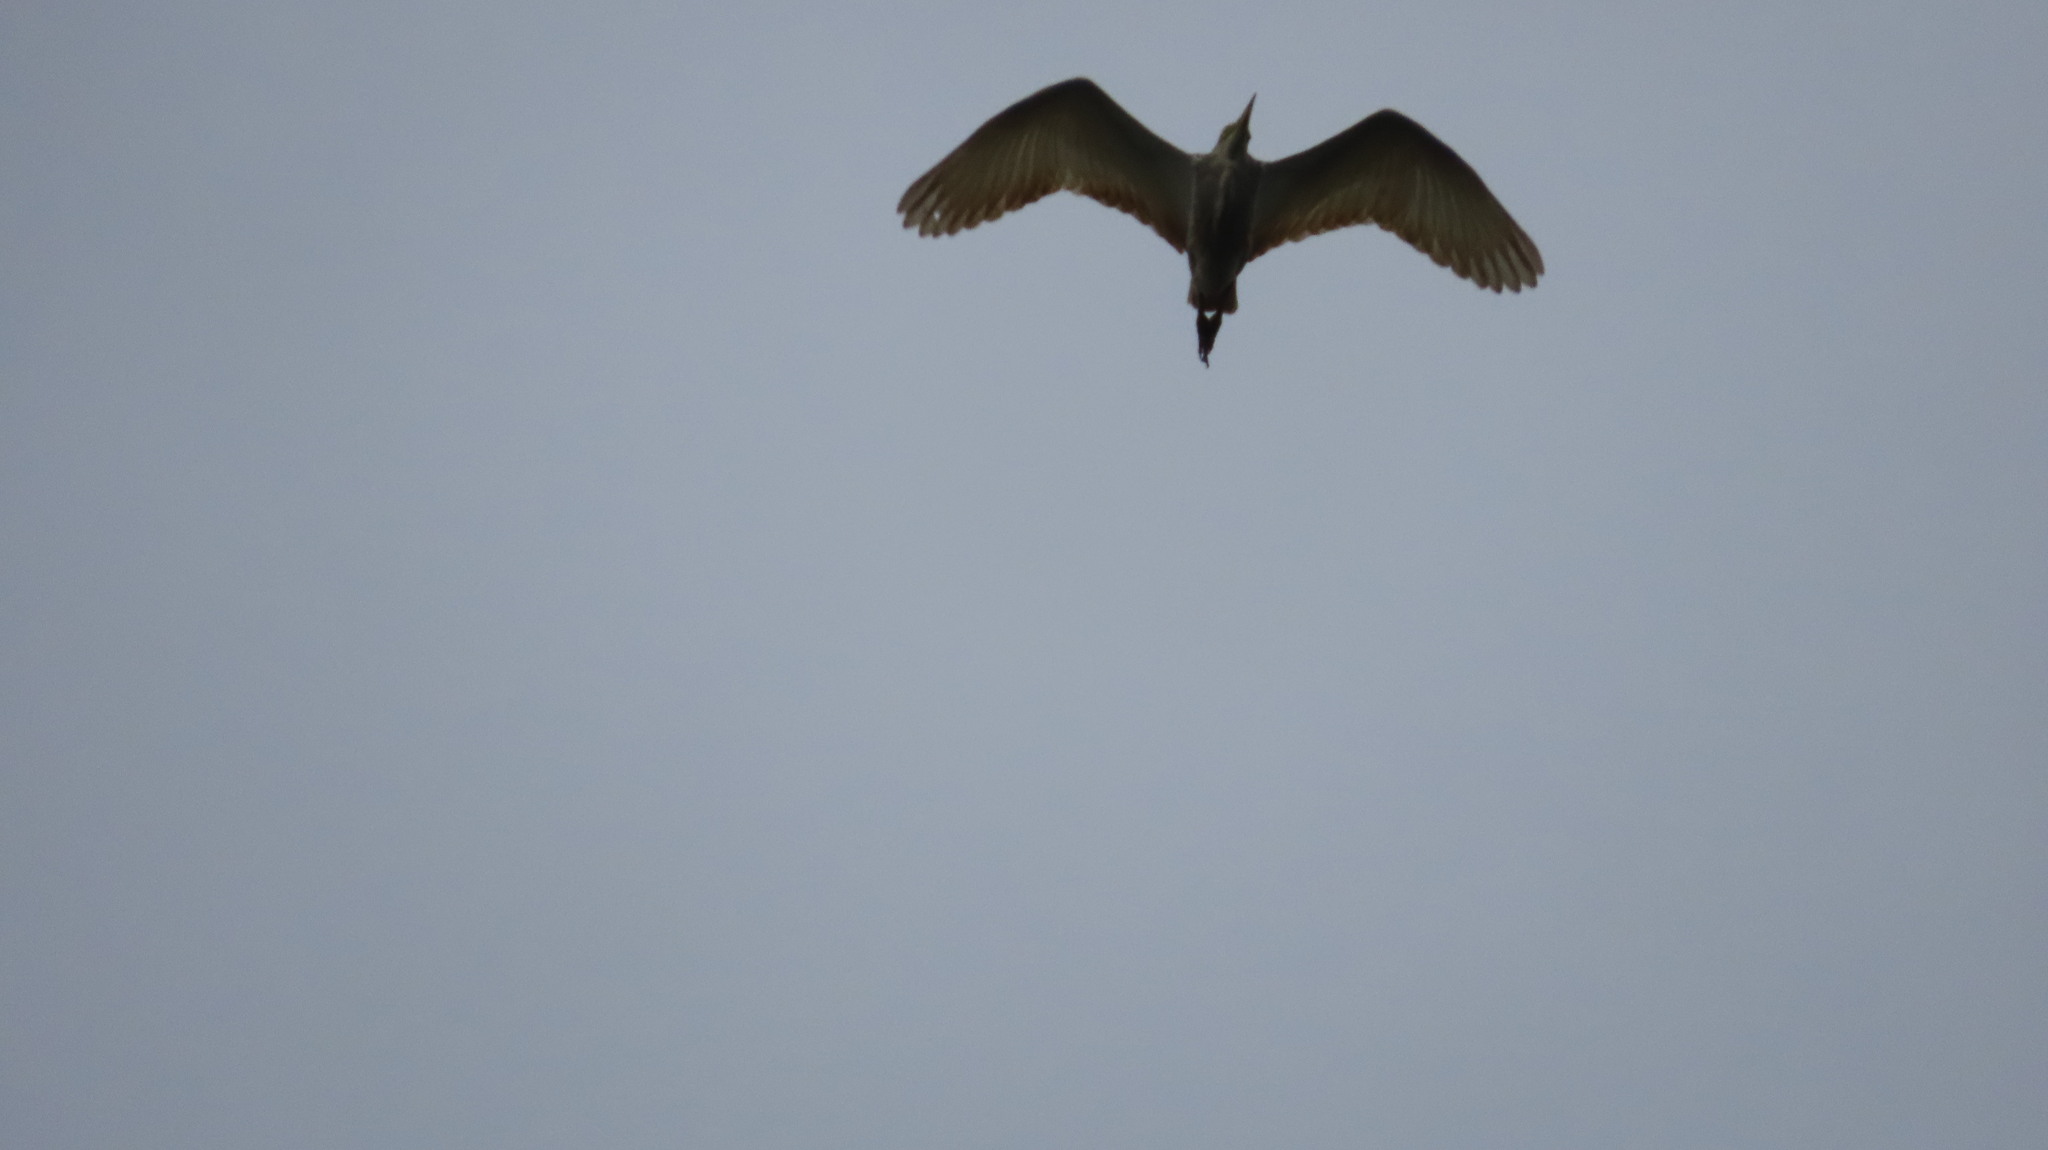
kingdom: Animalia
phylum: Chordata
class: Aves
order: Pelecaniformes
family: Ardeidae
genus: Ardeola
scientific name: Ardeola grayii
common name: Indian pond heron
